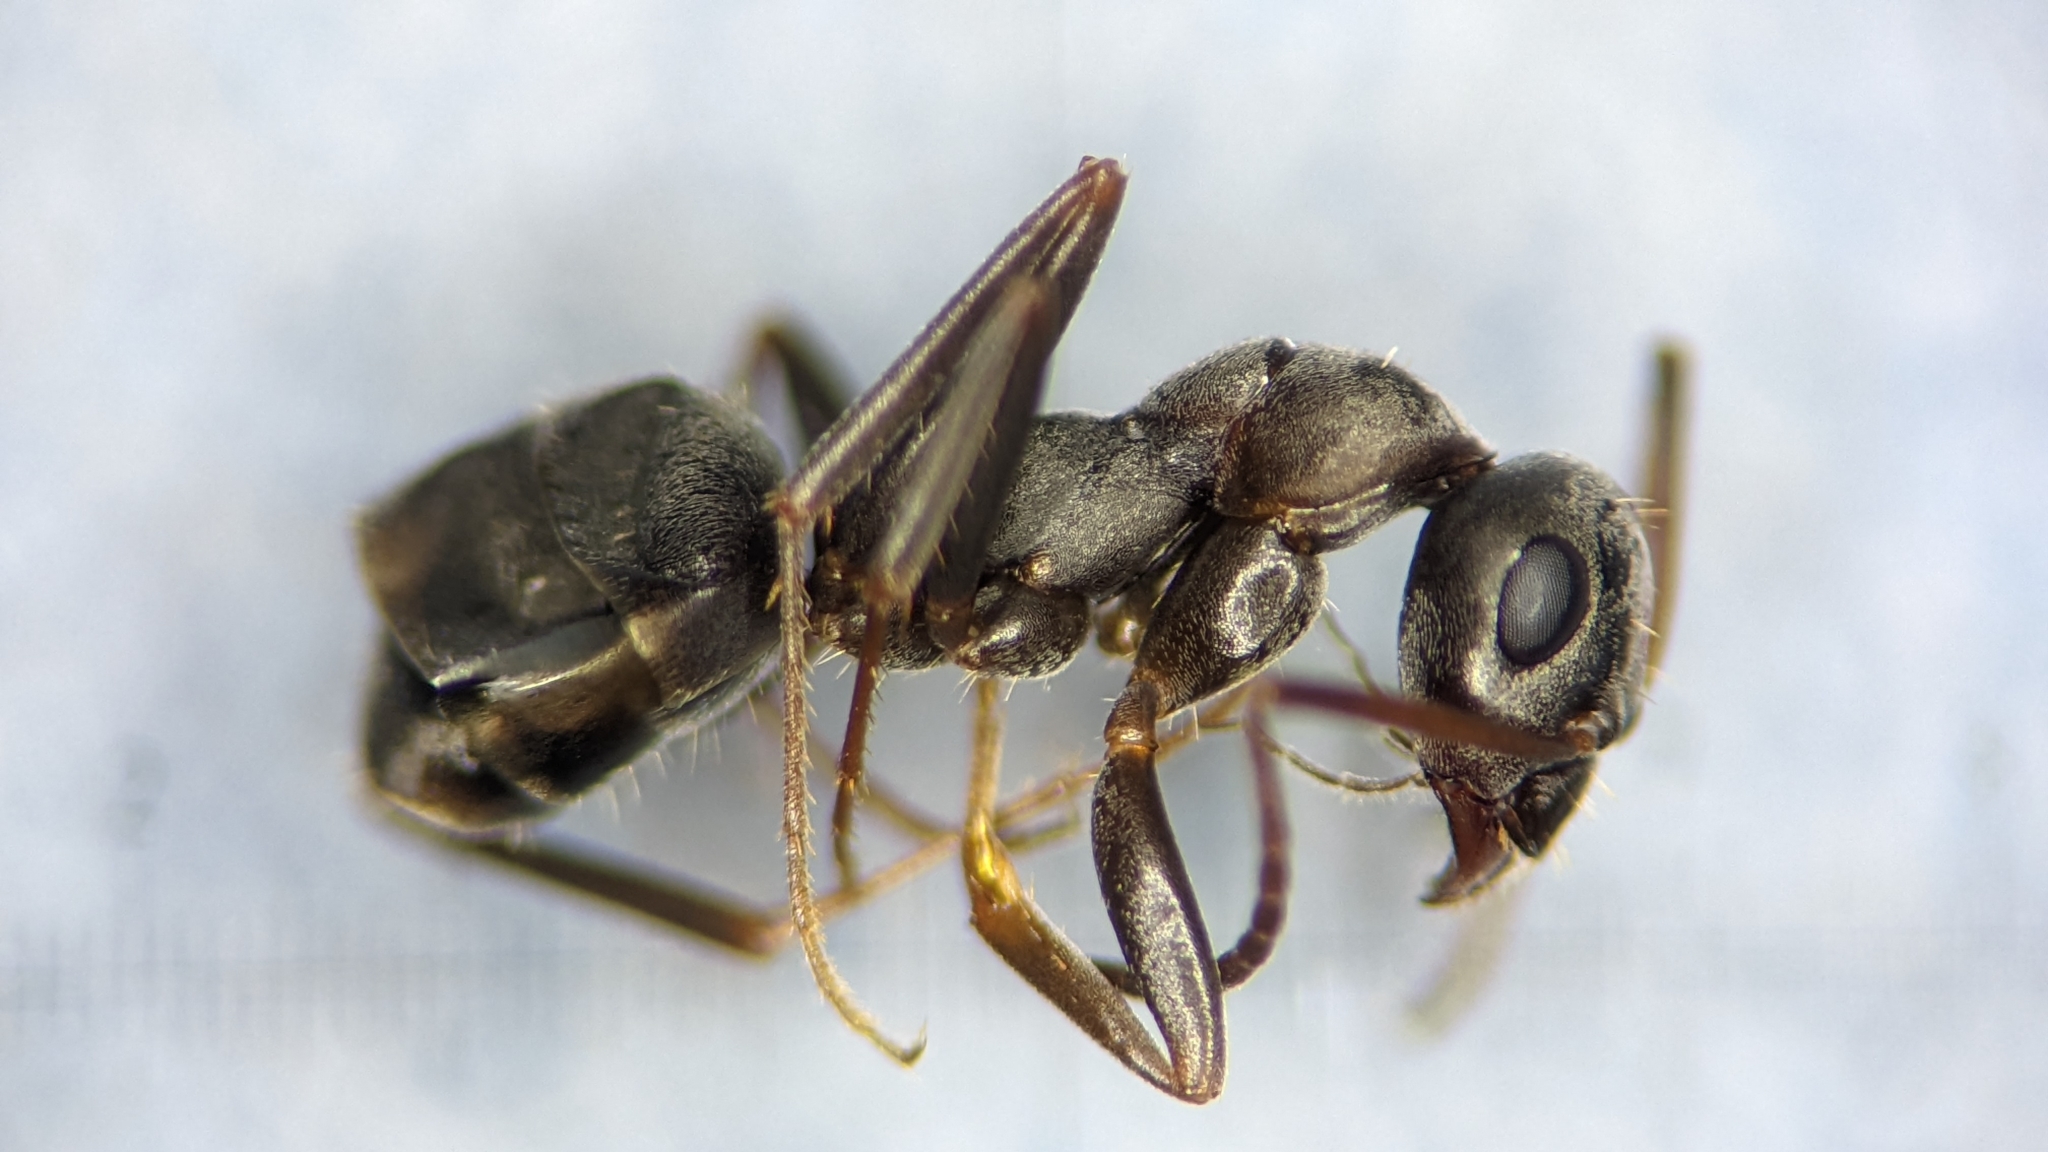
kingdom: Animalia
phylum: Arthropoda
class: Insecta
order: Hymenoptera
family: Formicidae
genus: Formica
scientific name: Formica gerardi
